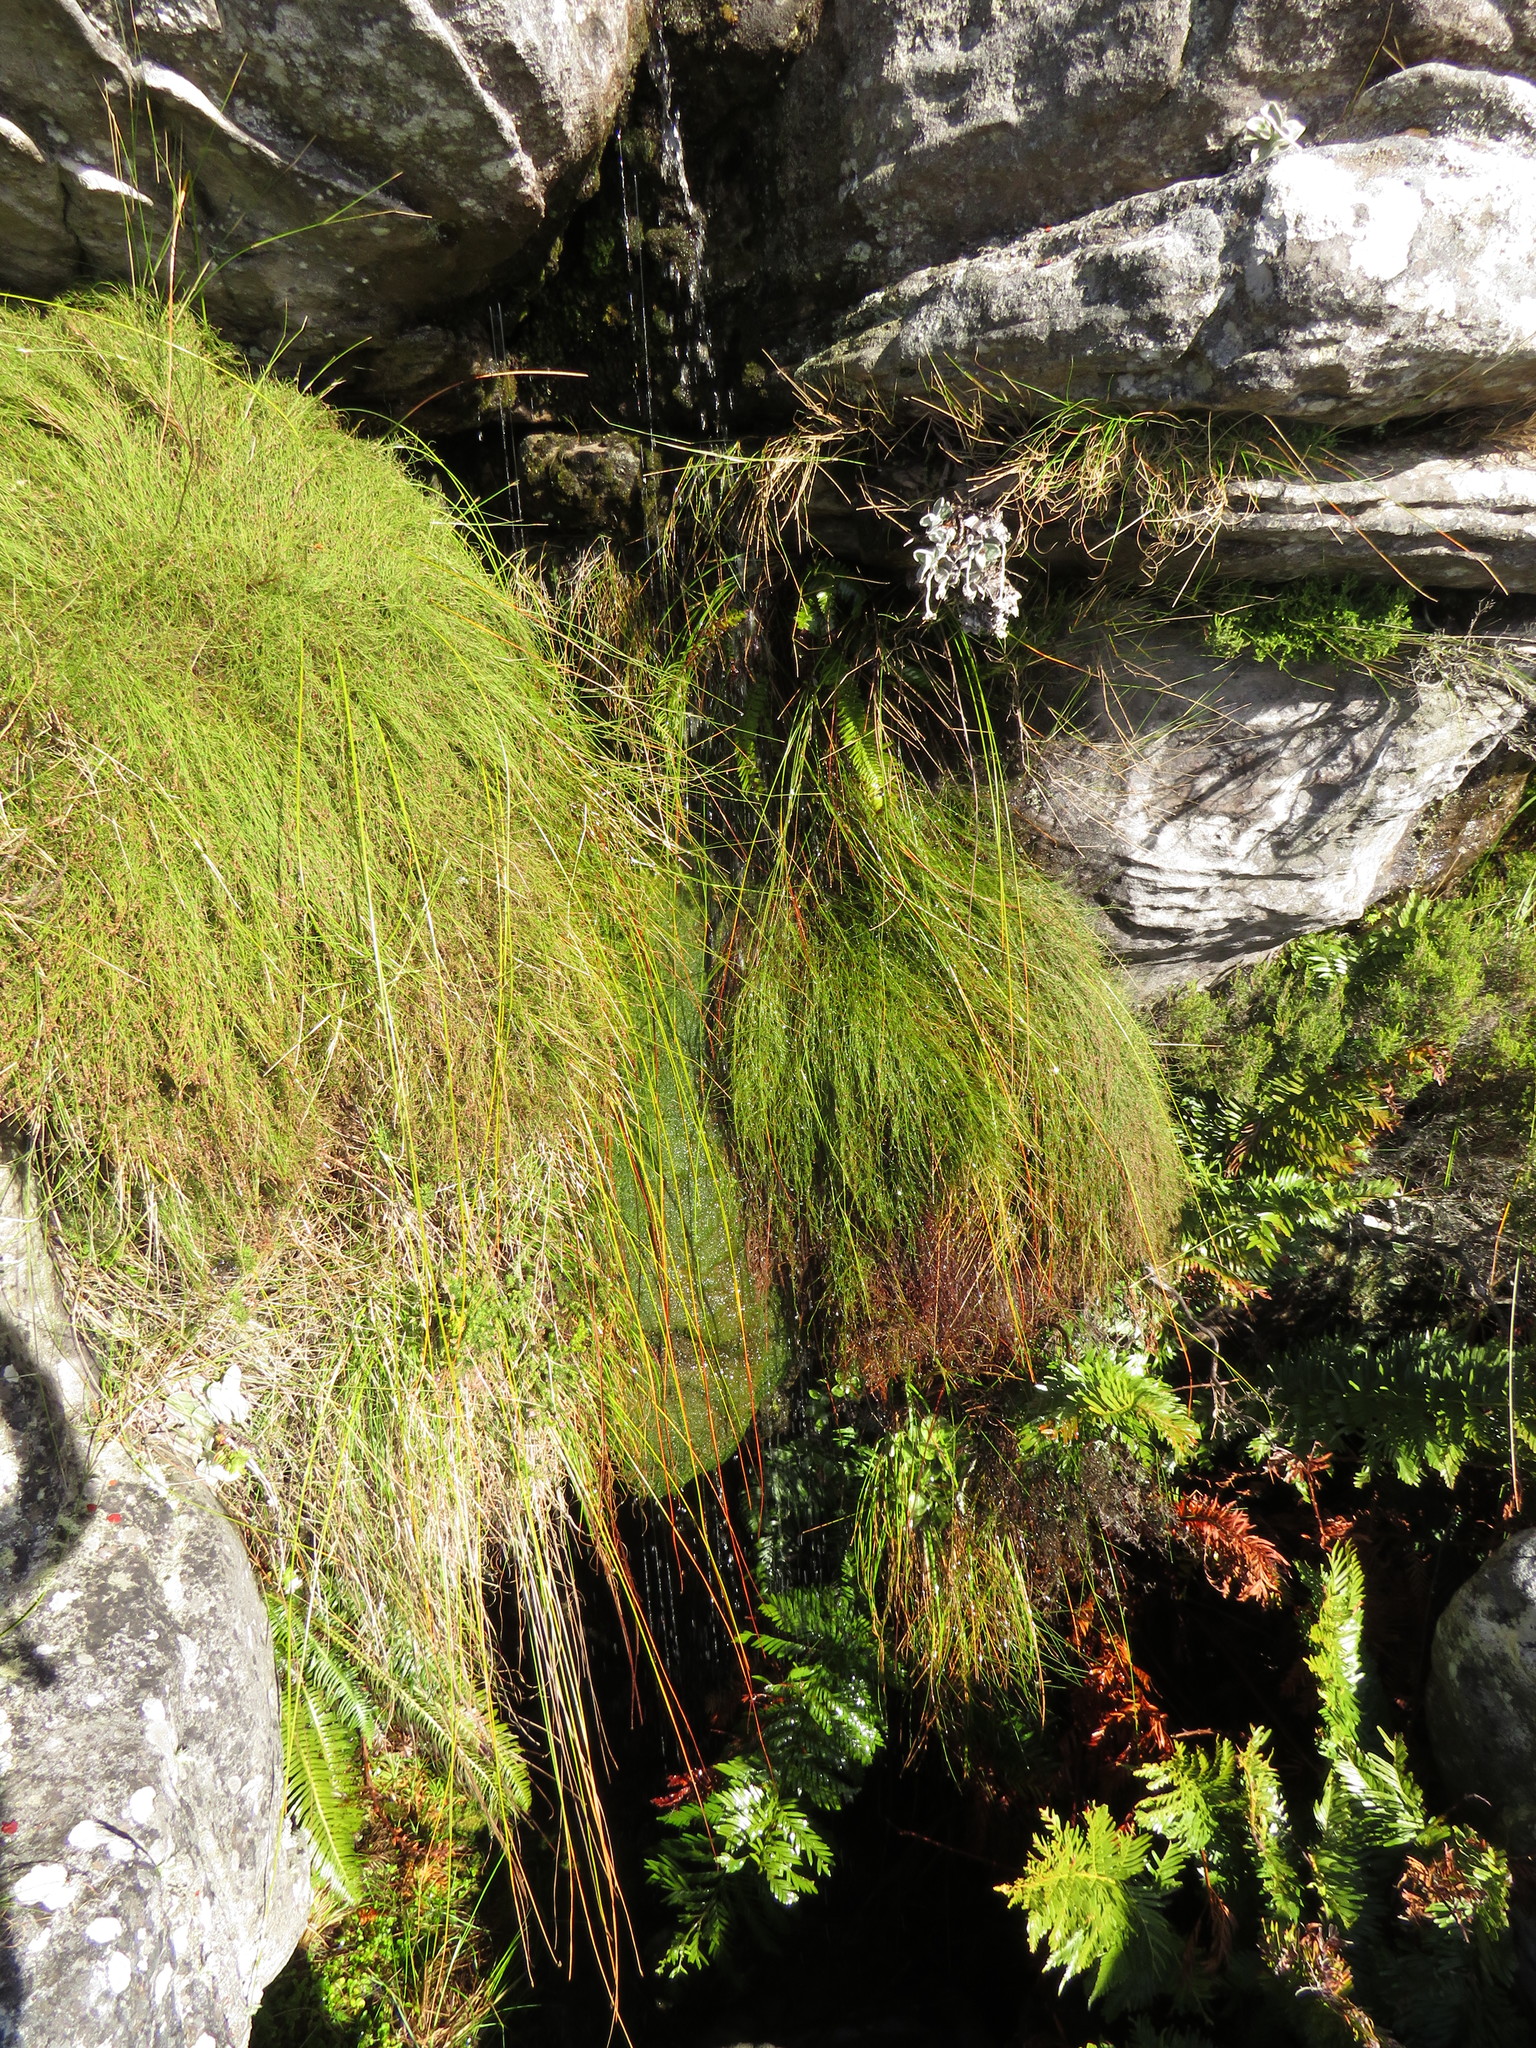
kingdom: Plantae
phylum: Tracheophyta
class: Polypodiopsida
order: Osmundales
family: Osmundaceae
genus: Todea
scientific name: Todea barbara
